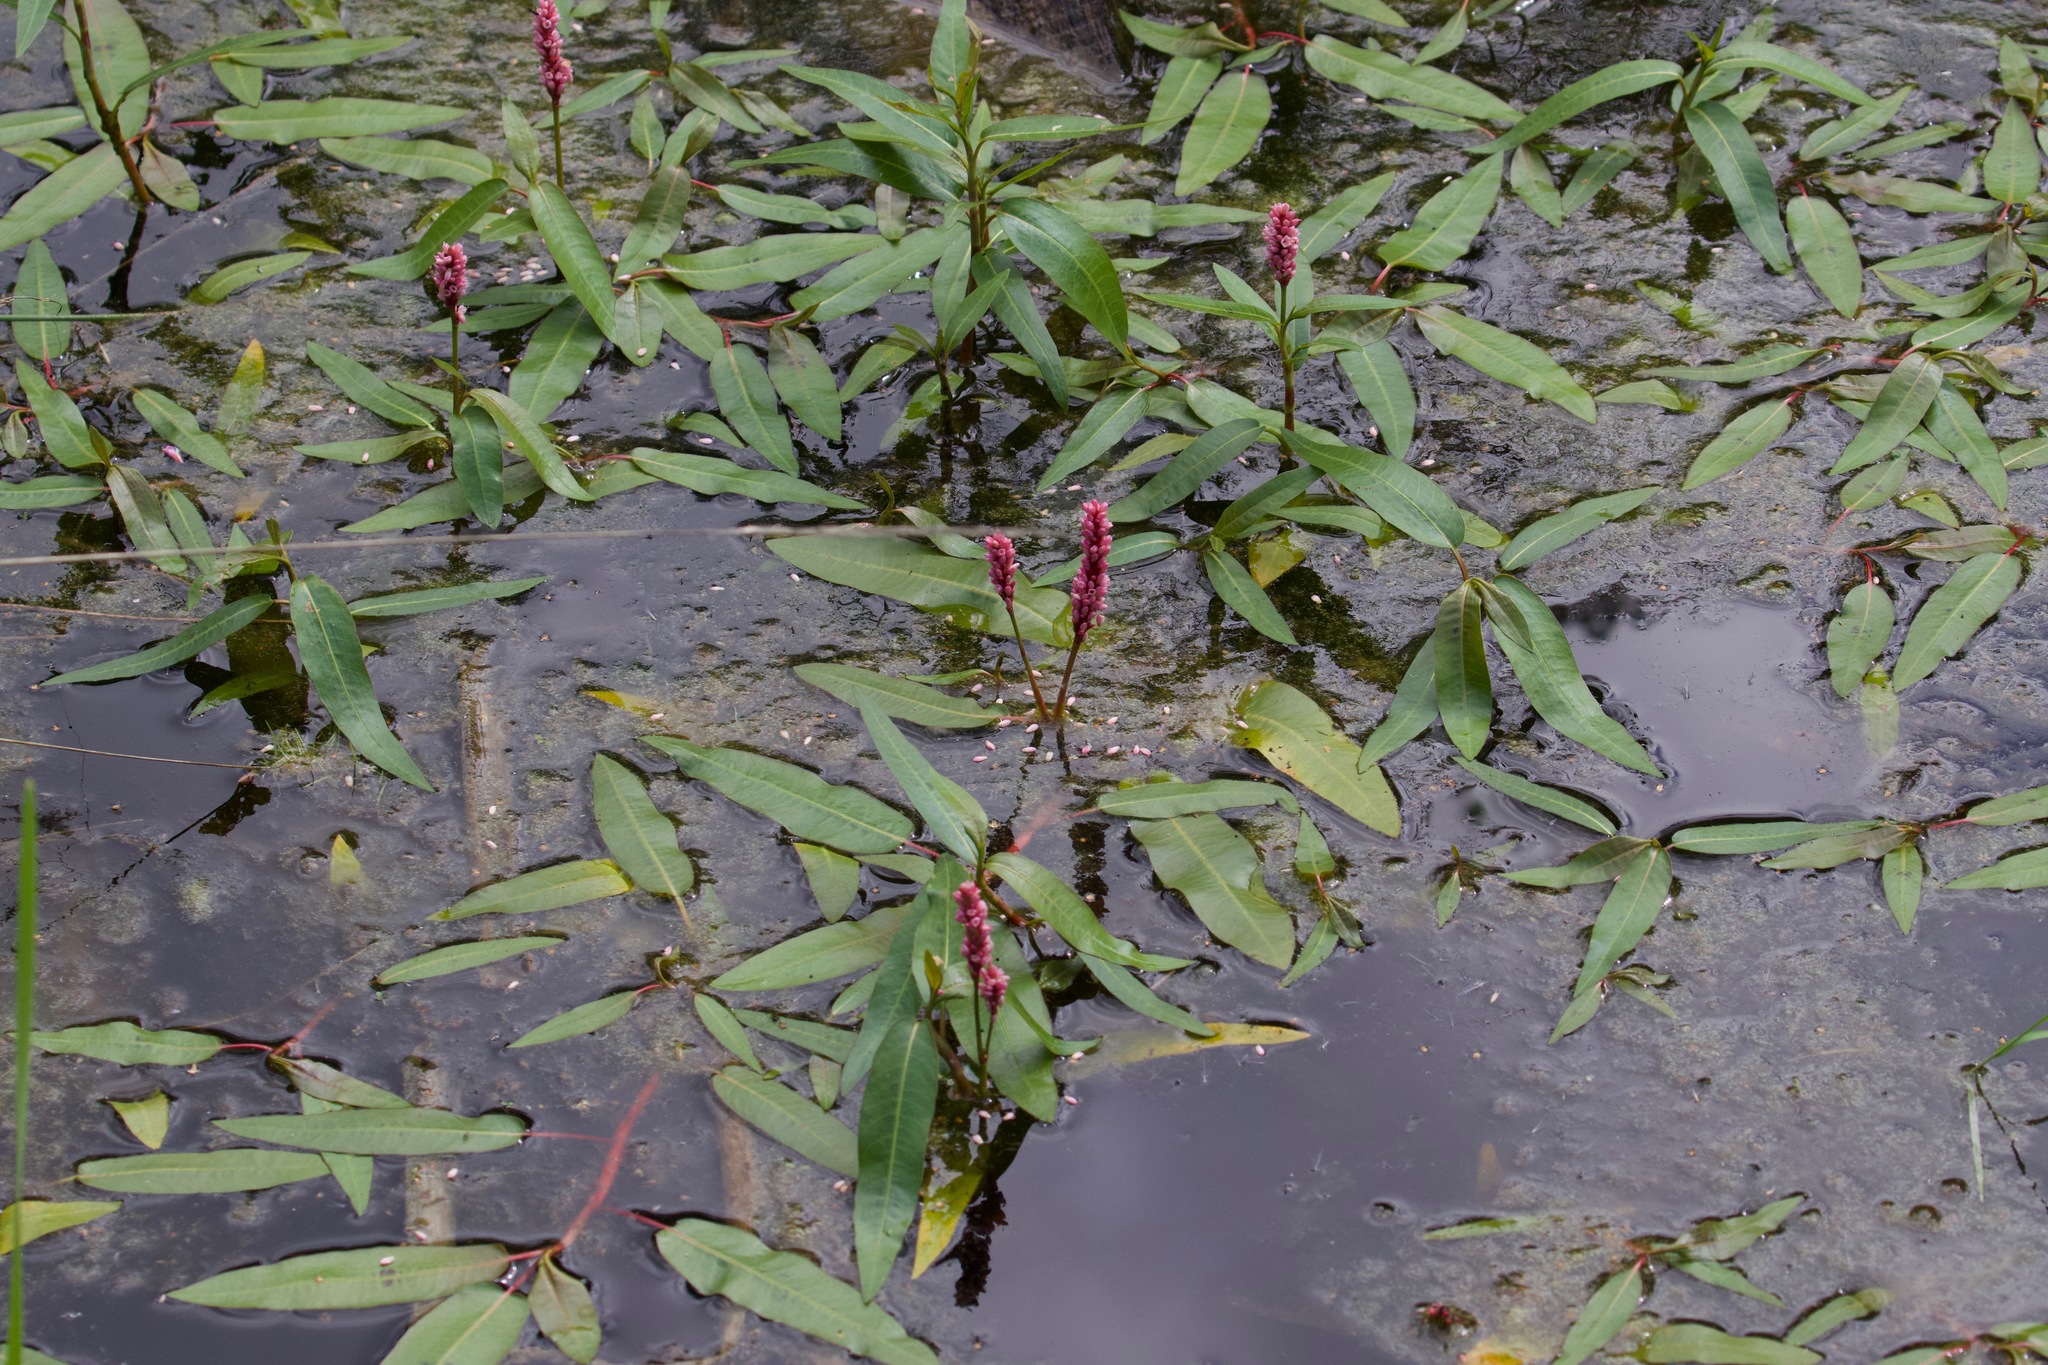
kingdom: Plantae
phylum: Tracheophyta
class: Magnoliopsida
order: Caryophyllales
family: Polygonaceae
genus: Persicaria
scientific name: Persicaria amphibia
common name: Amphibious bistort
